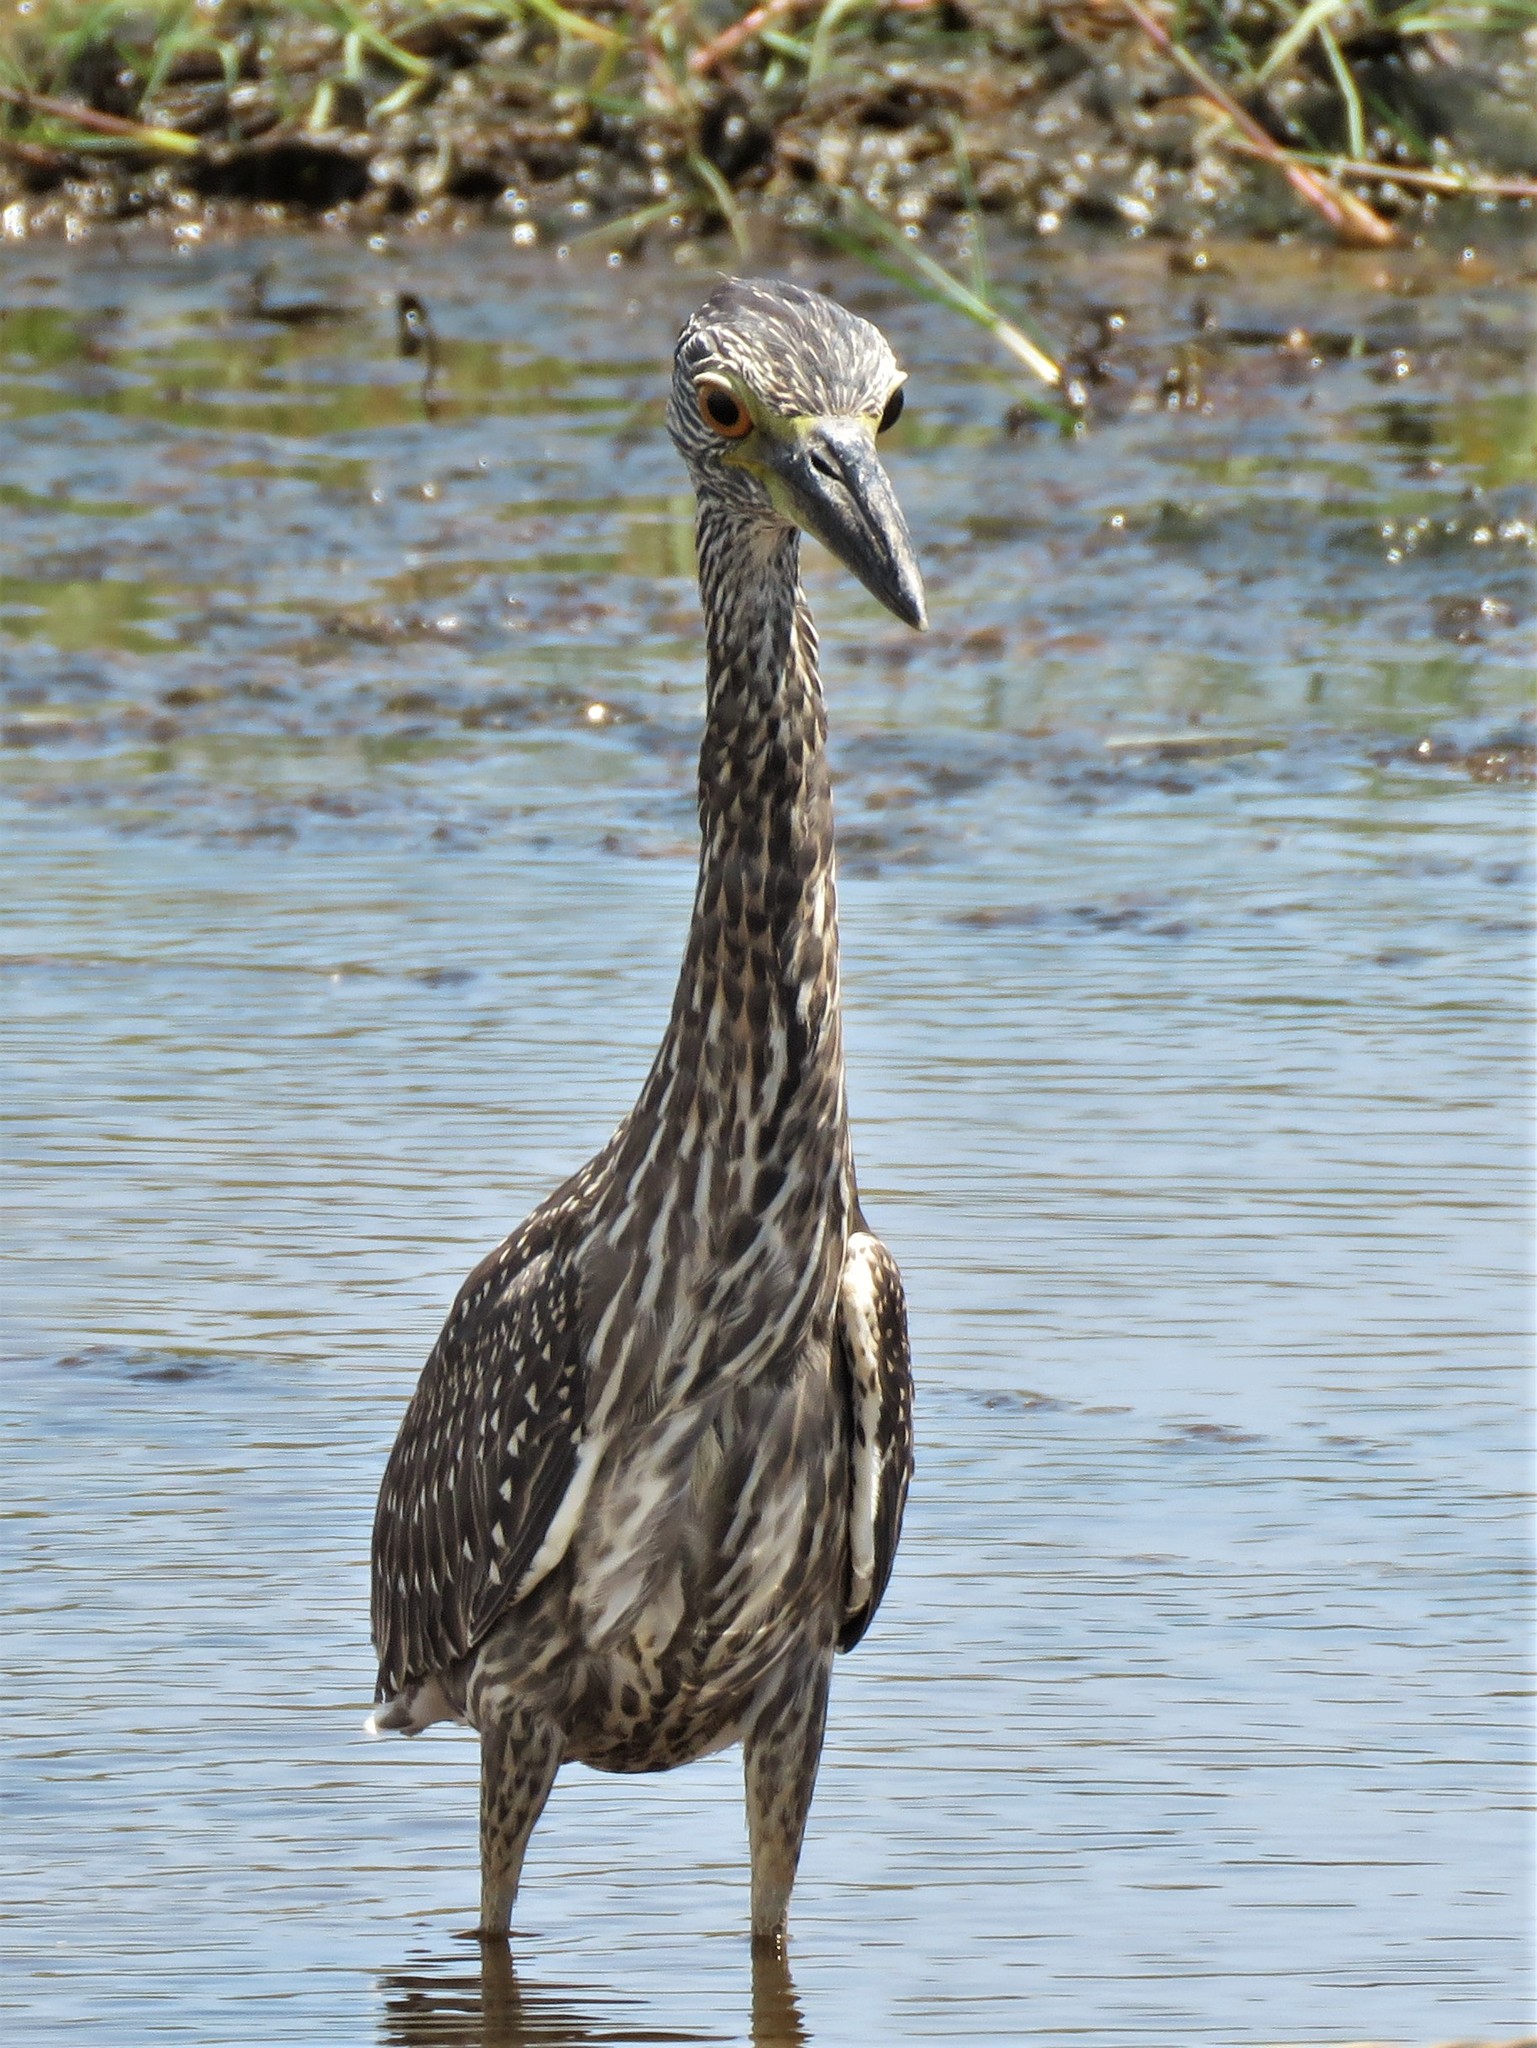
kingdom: Animalia
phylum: Chordata
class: Aves
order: Pelecaniformes
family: Ardeidae
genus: Nyctanassa
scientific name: Nyctanassa violacea
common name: Yellow-crowned night heron
